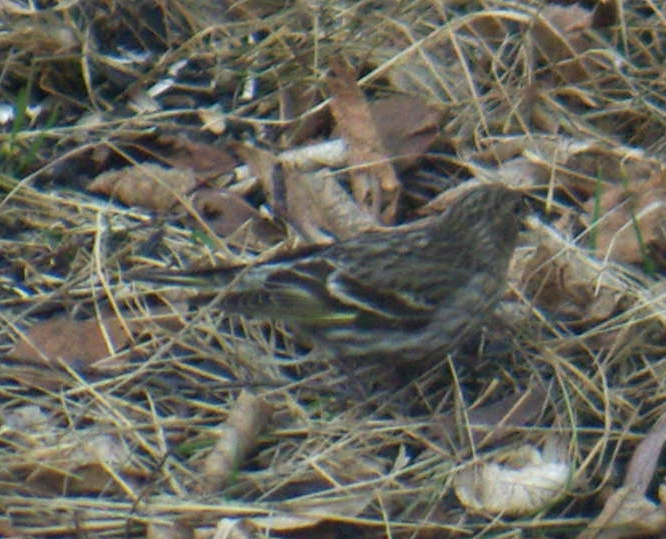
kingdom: Animalia
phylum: Chordata
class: Aves
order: Passeriformes
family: Fringillidae
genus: Spinus
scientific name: Spinus pinus
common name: Pine siskin
